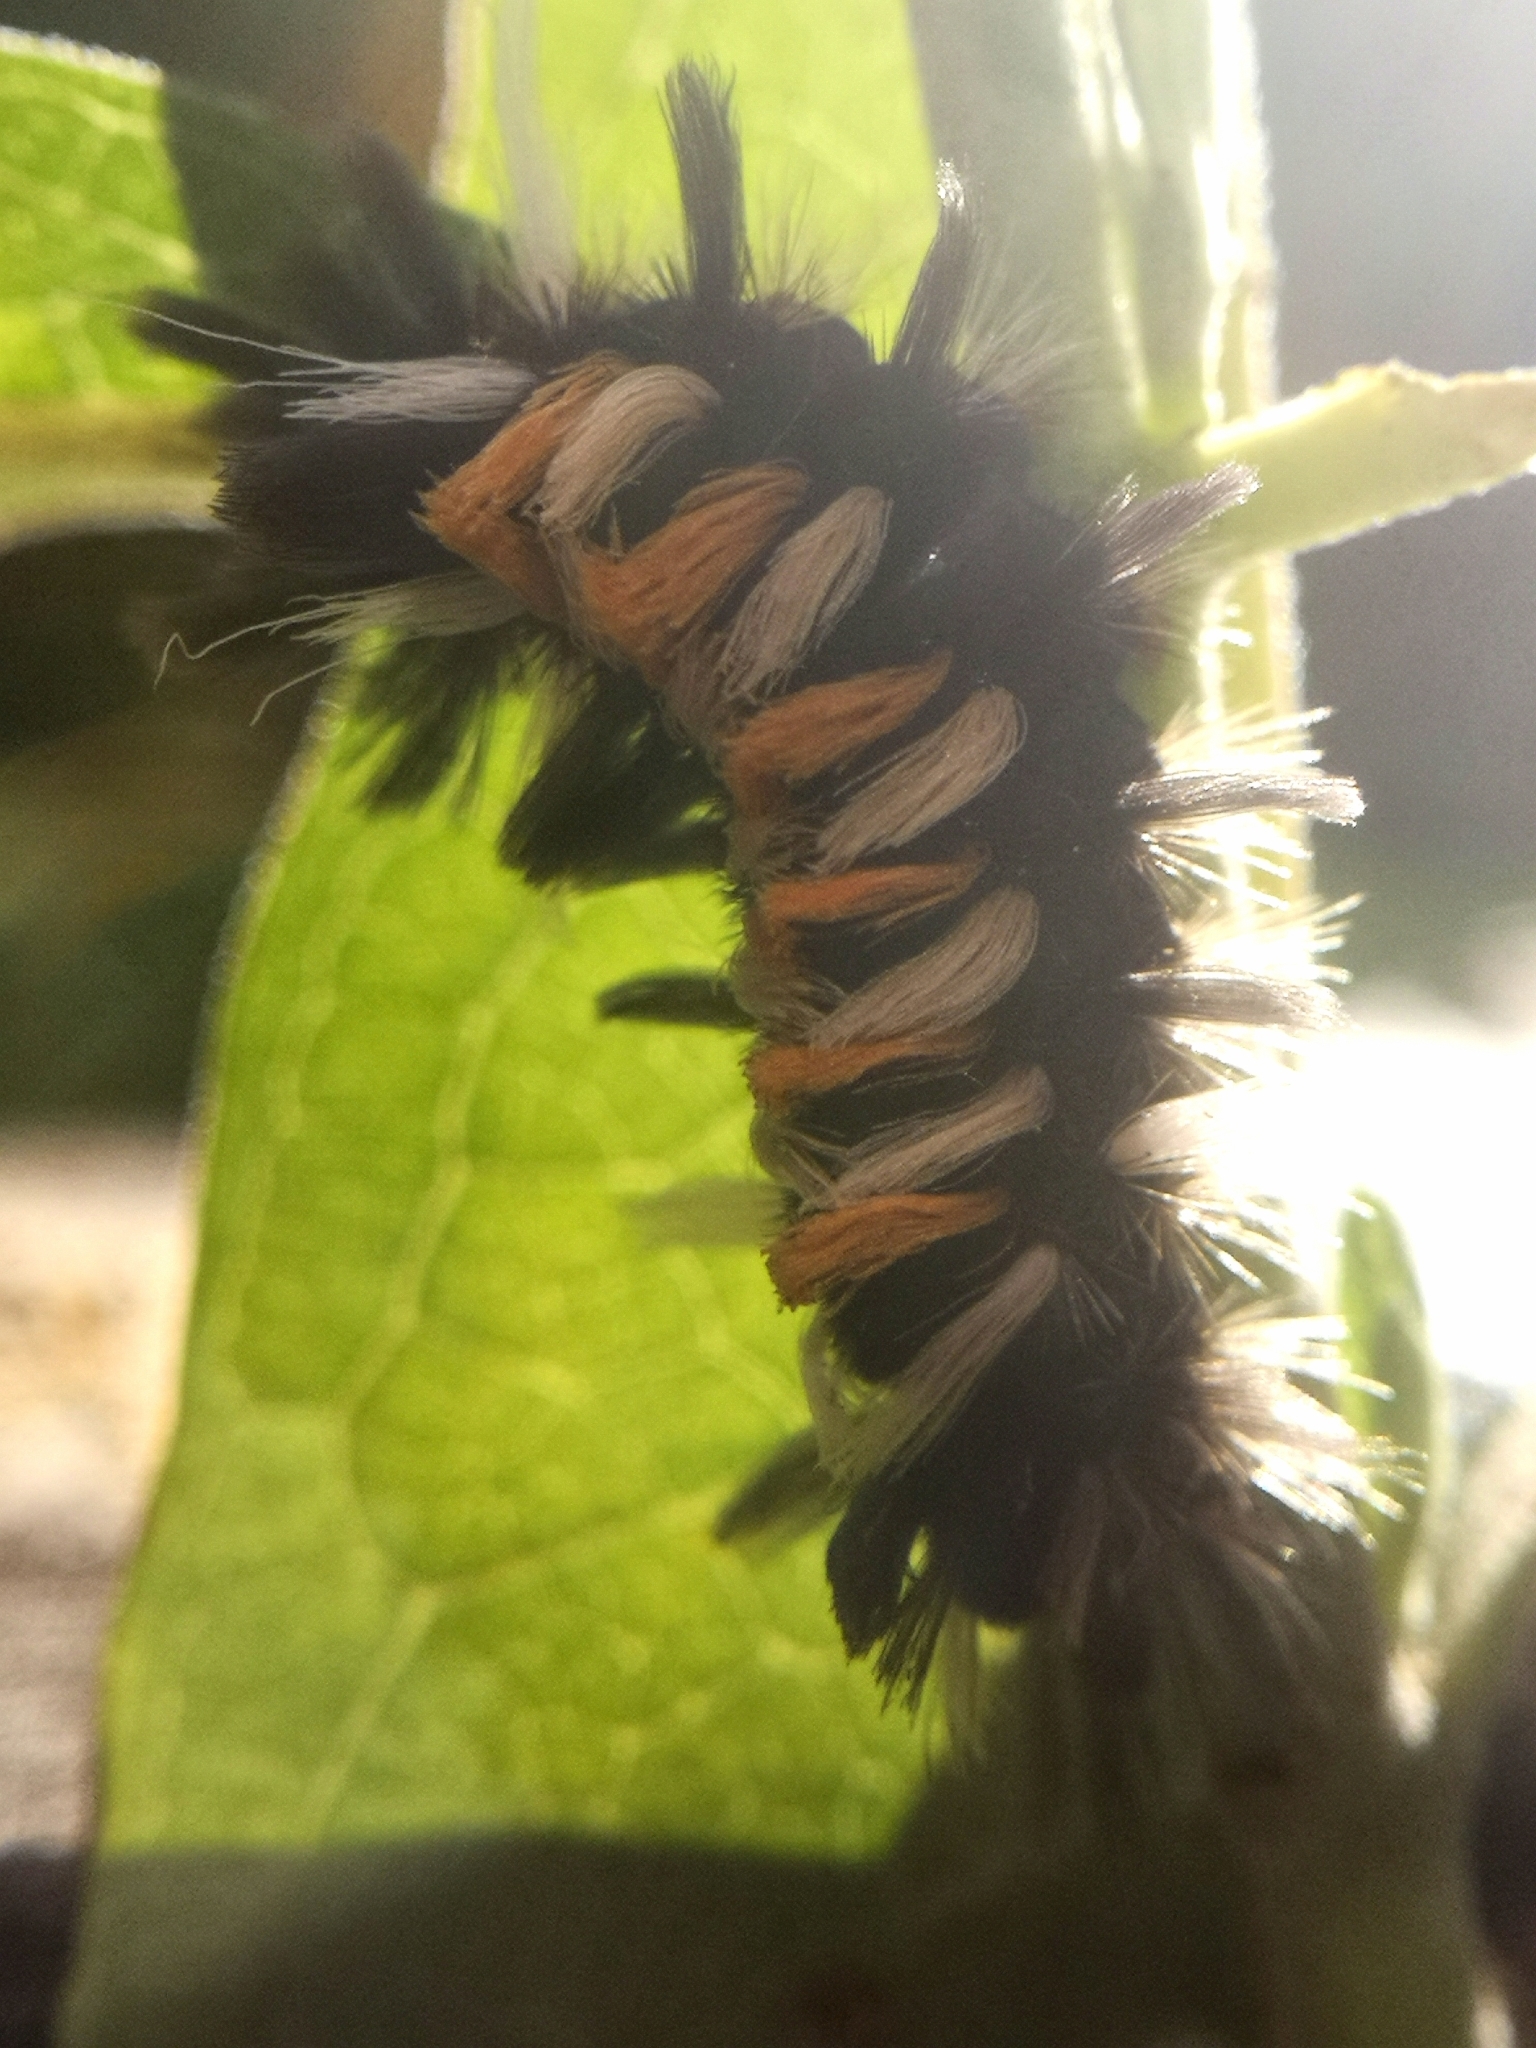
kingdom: Animalia
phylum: Arthropoda
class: Insecta
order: Lepidoptera
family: Erebidae
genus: Euchaetes
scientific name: Euchaetes egle
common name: Milkweed tussock moth
